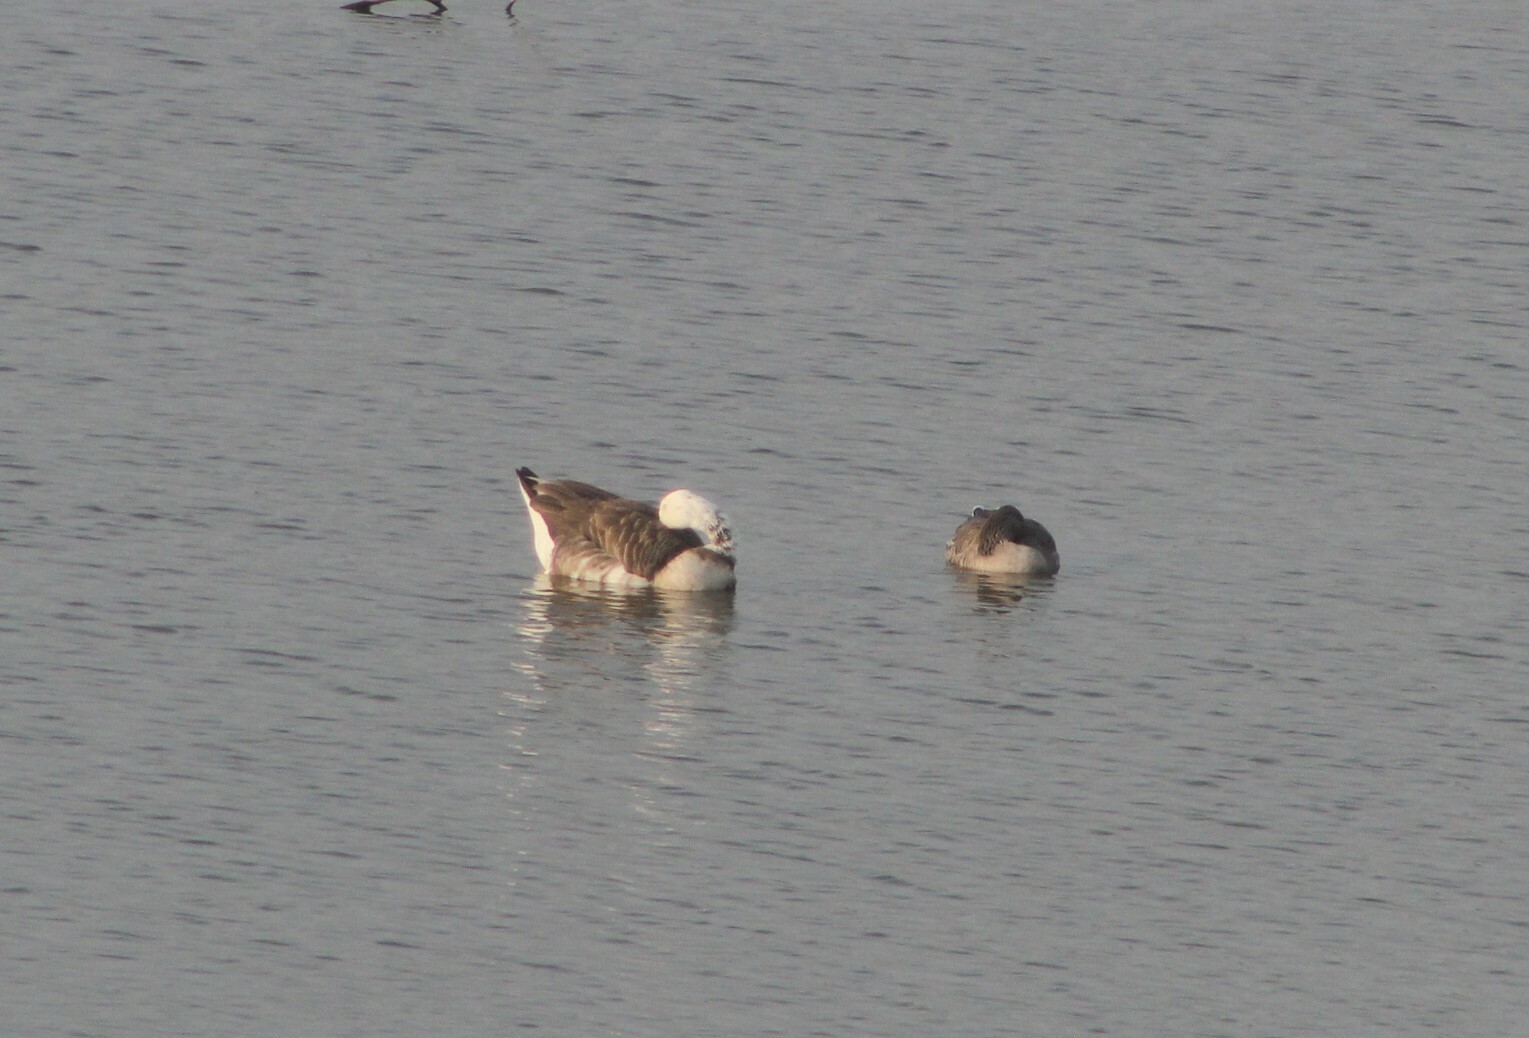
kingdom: Animalia
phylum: Chordata
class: Aves
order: Anseriformes
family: Anatidae
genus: Anser
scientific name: Anser anser
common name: Greylag goose
